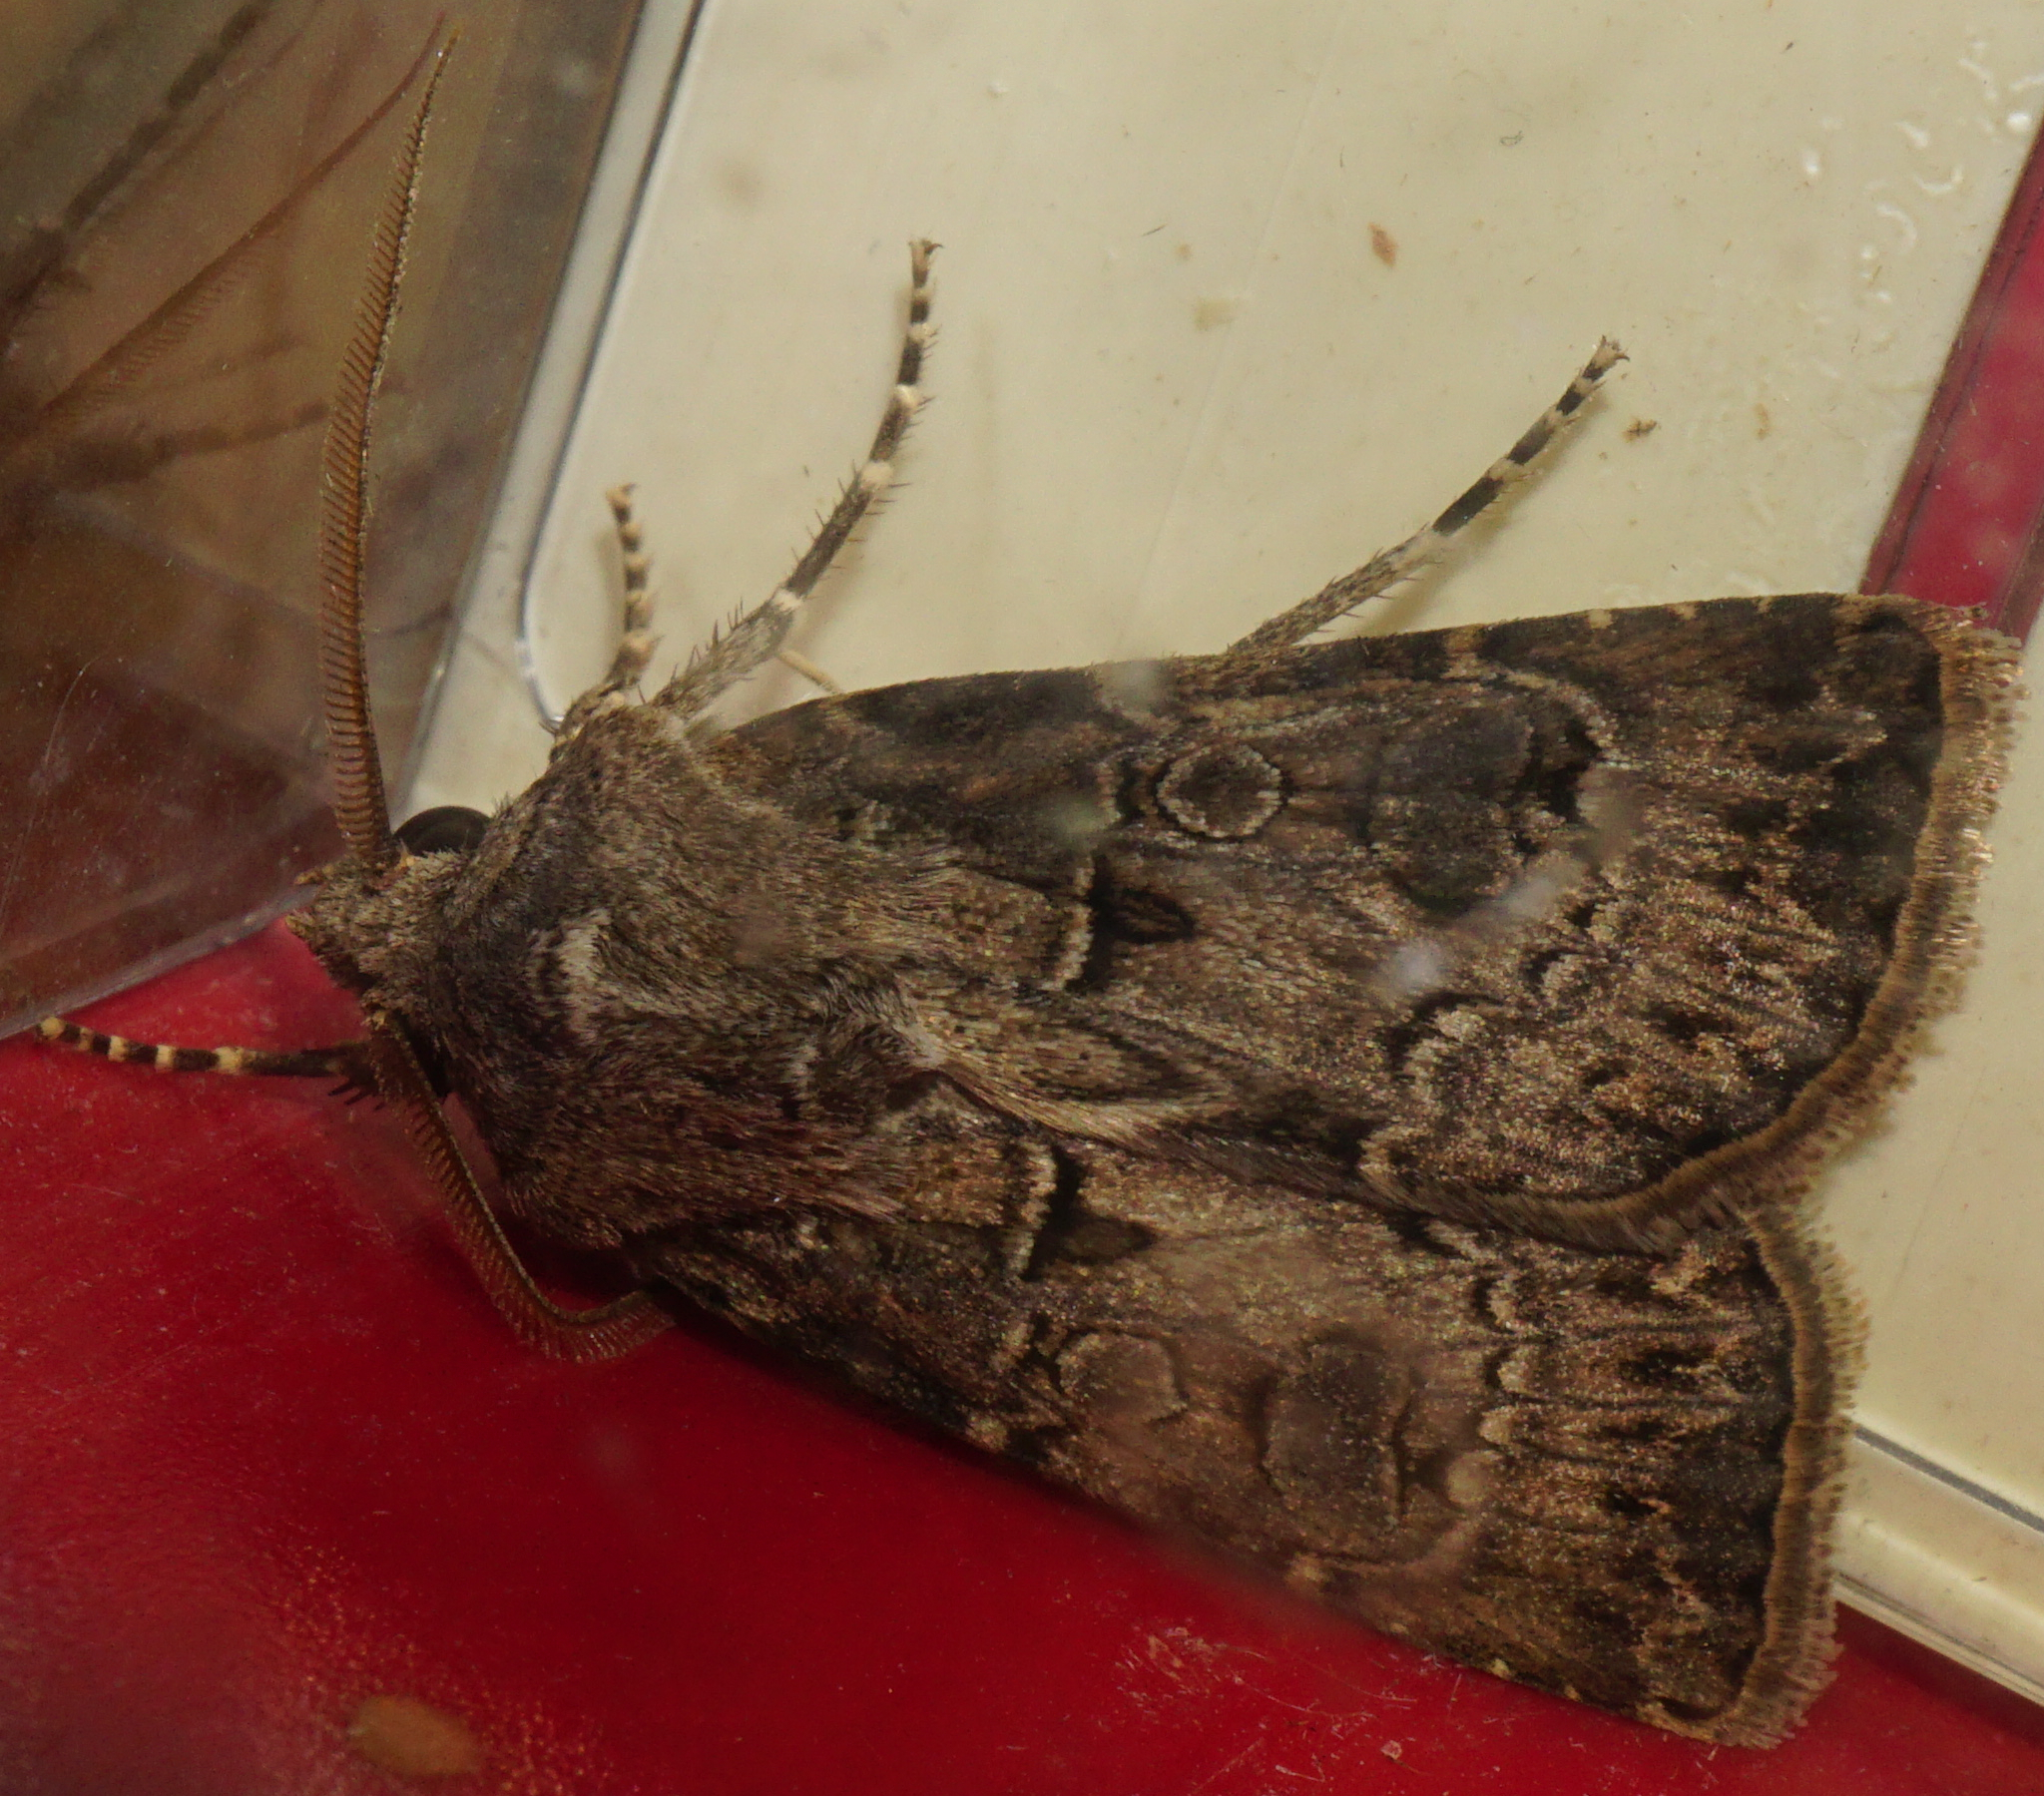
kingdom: Animalia
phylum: Arthropoda
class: Insecta
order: Lepidoptera
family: Noctuidae
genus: Agrotis
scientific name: Agrotis bigramma
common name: Great dart
